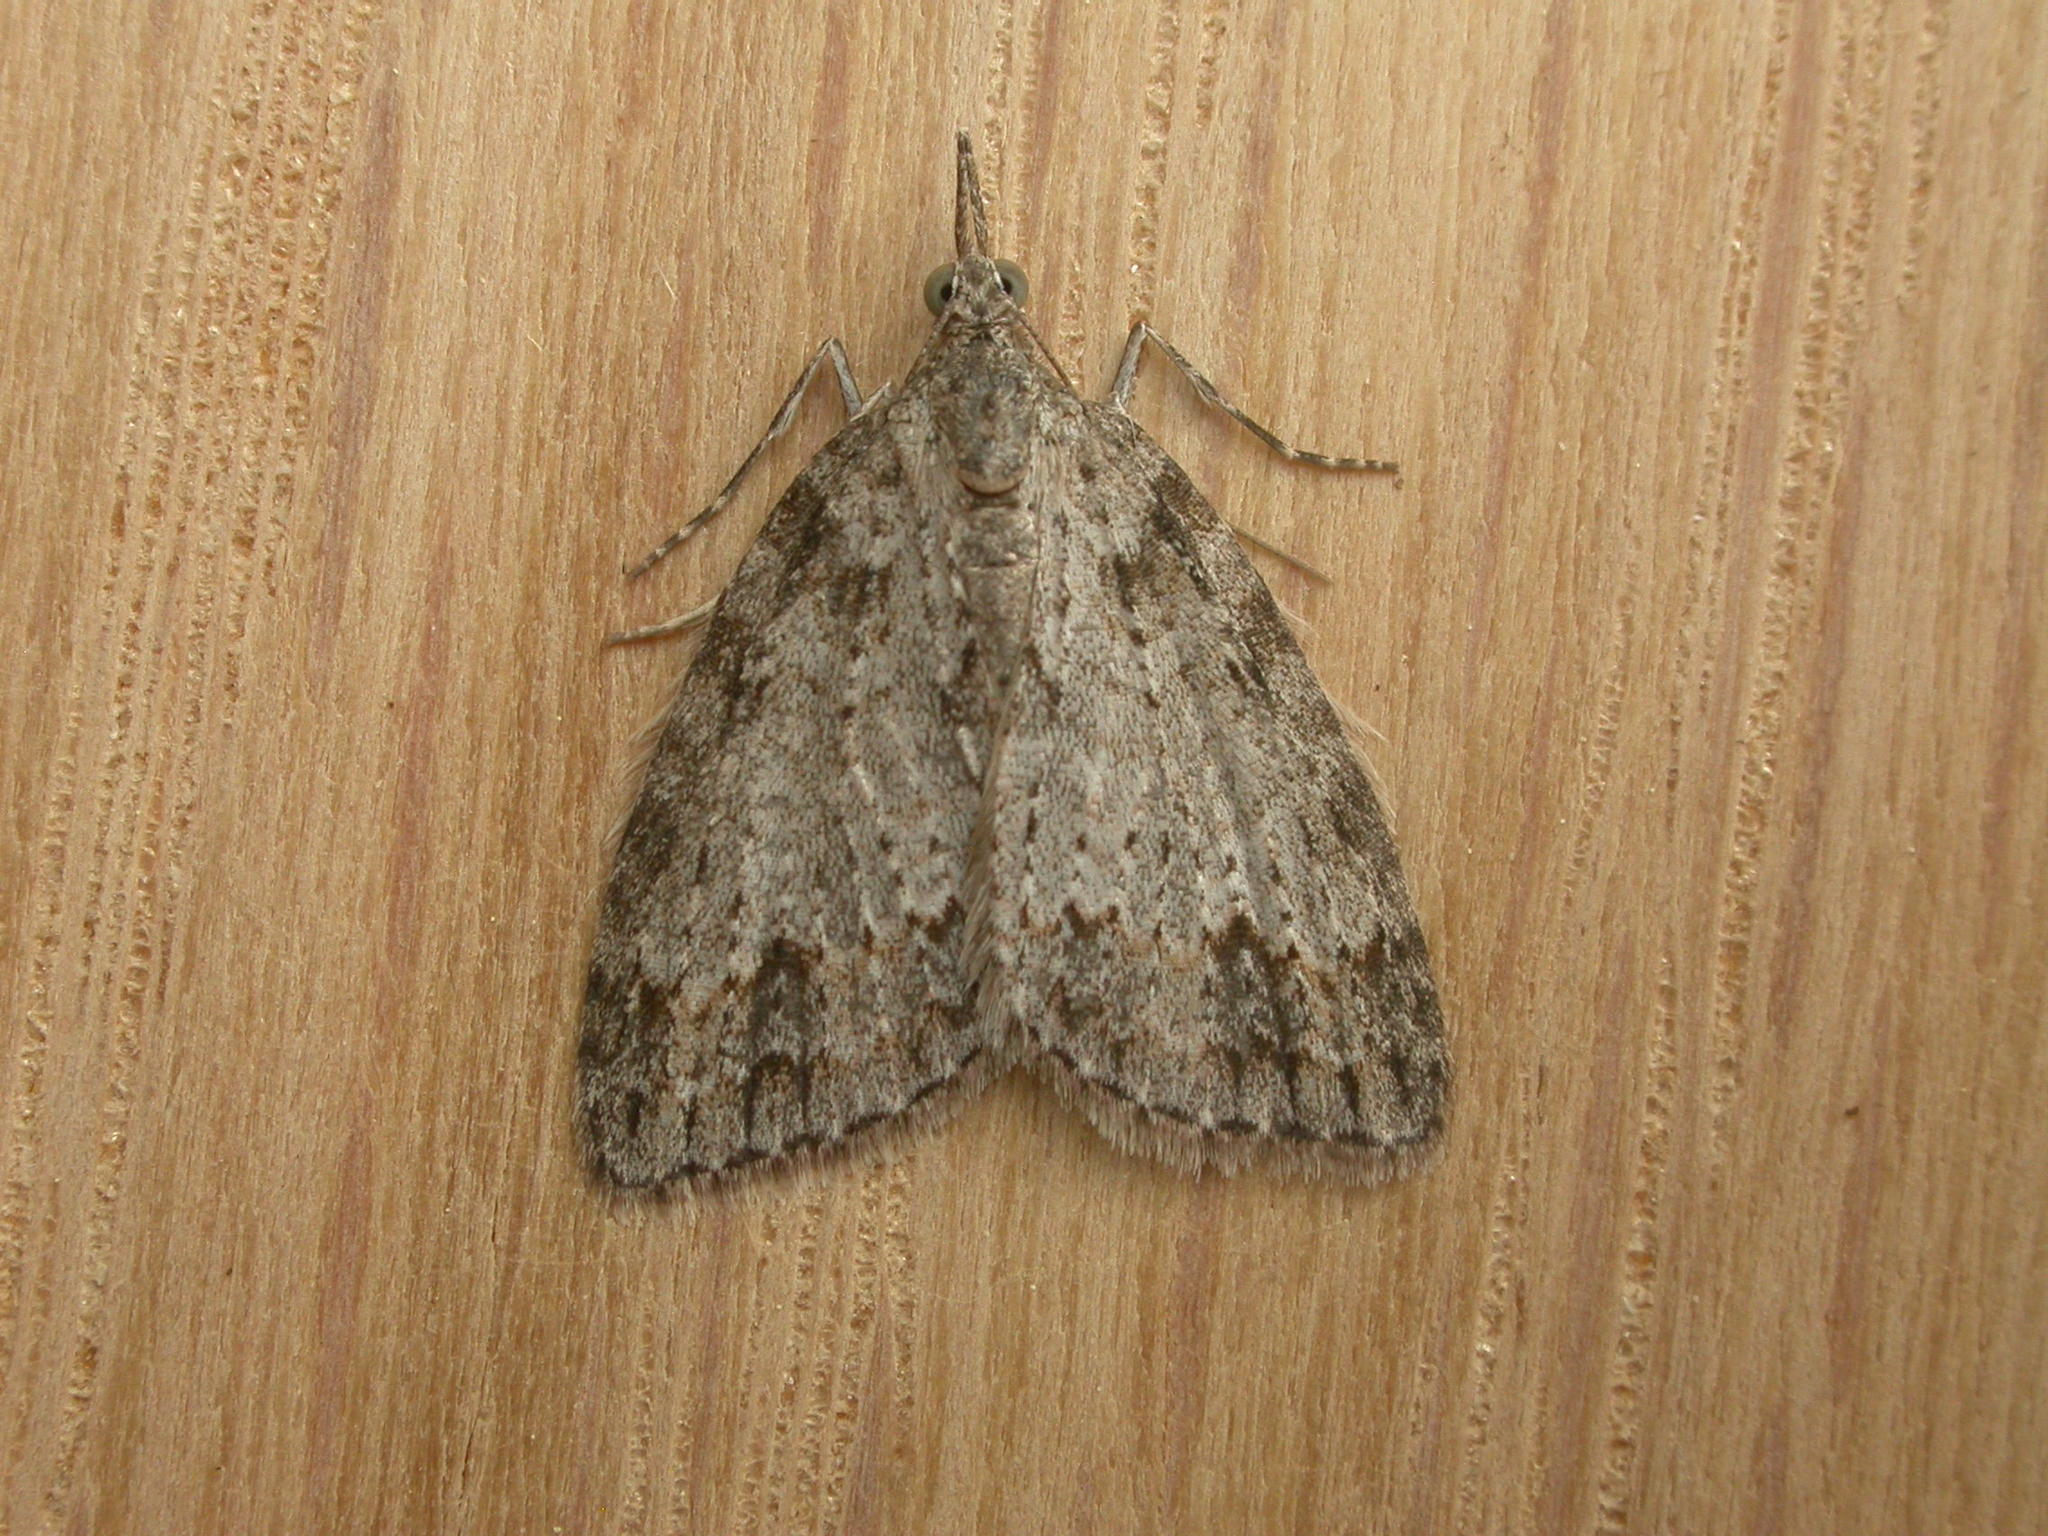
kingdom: Animalia
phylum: Arthropoda
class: Insecta
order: Lepidoptera
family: Geometridae
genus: Microdes
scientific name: Microdes villosata
